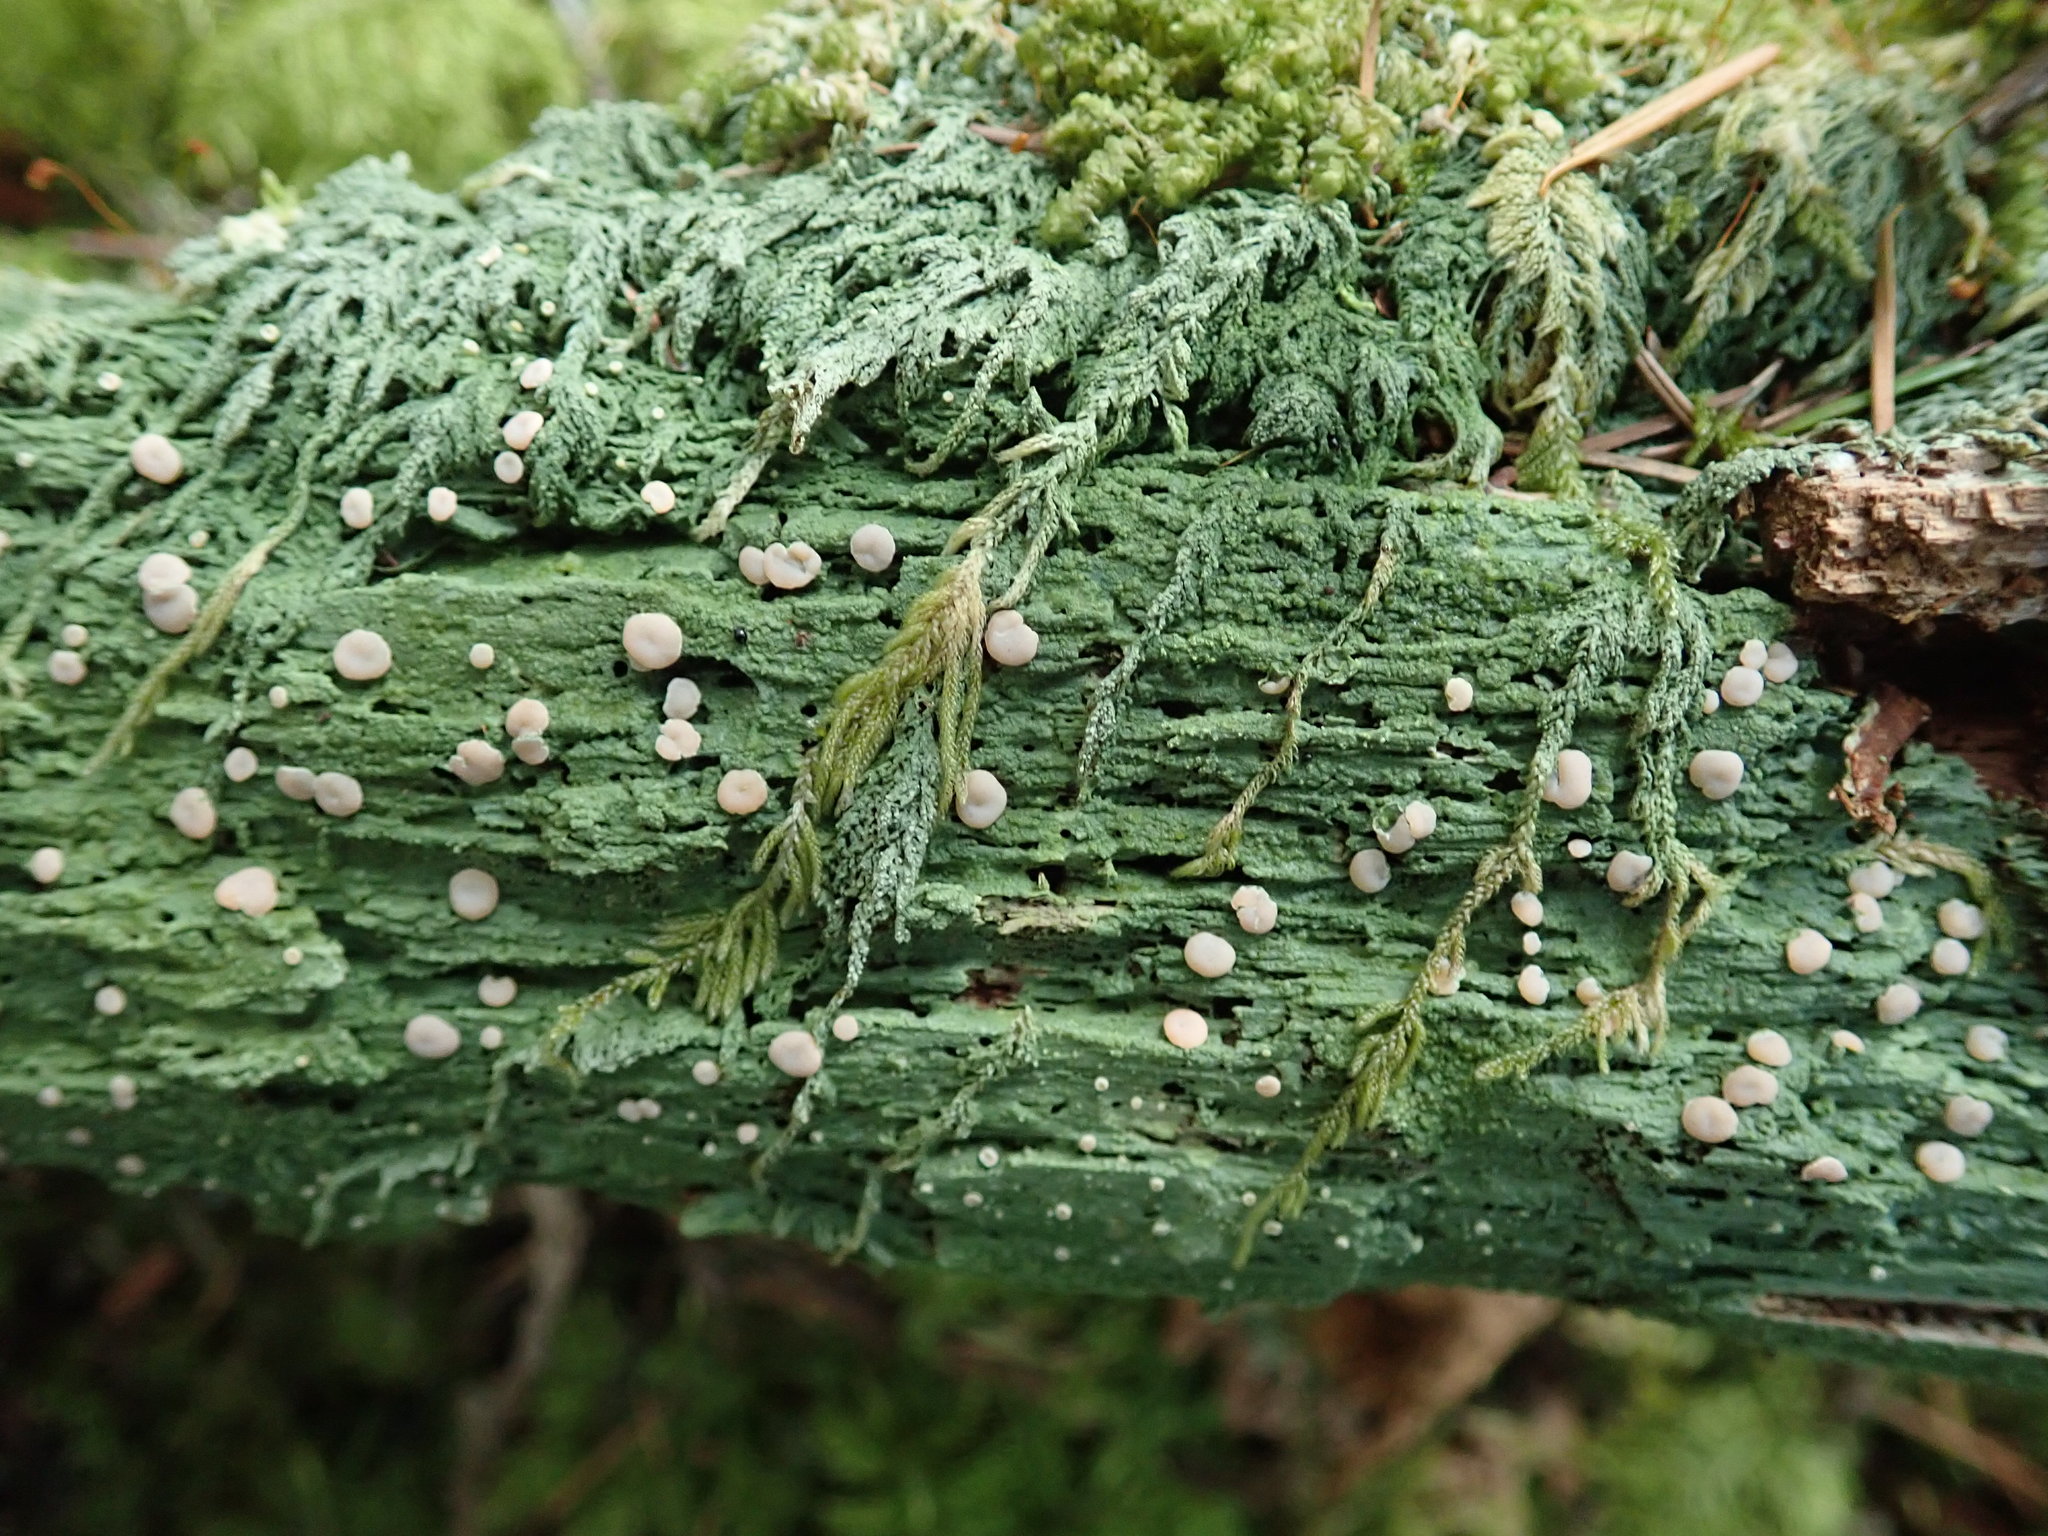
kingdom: Fungi
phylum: Ascomycota
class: Lecanoromycetes
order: Pertusariales
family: Icmadophilaceae
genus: Icmadophila
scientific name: Icmadophila ericetorum
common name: Candy lichen
